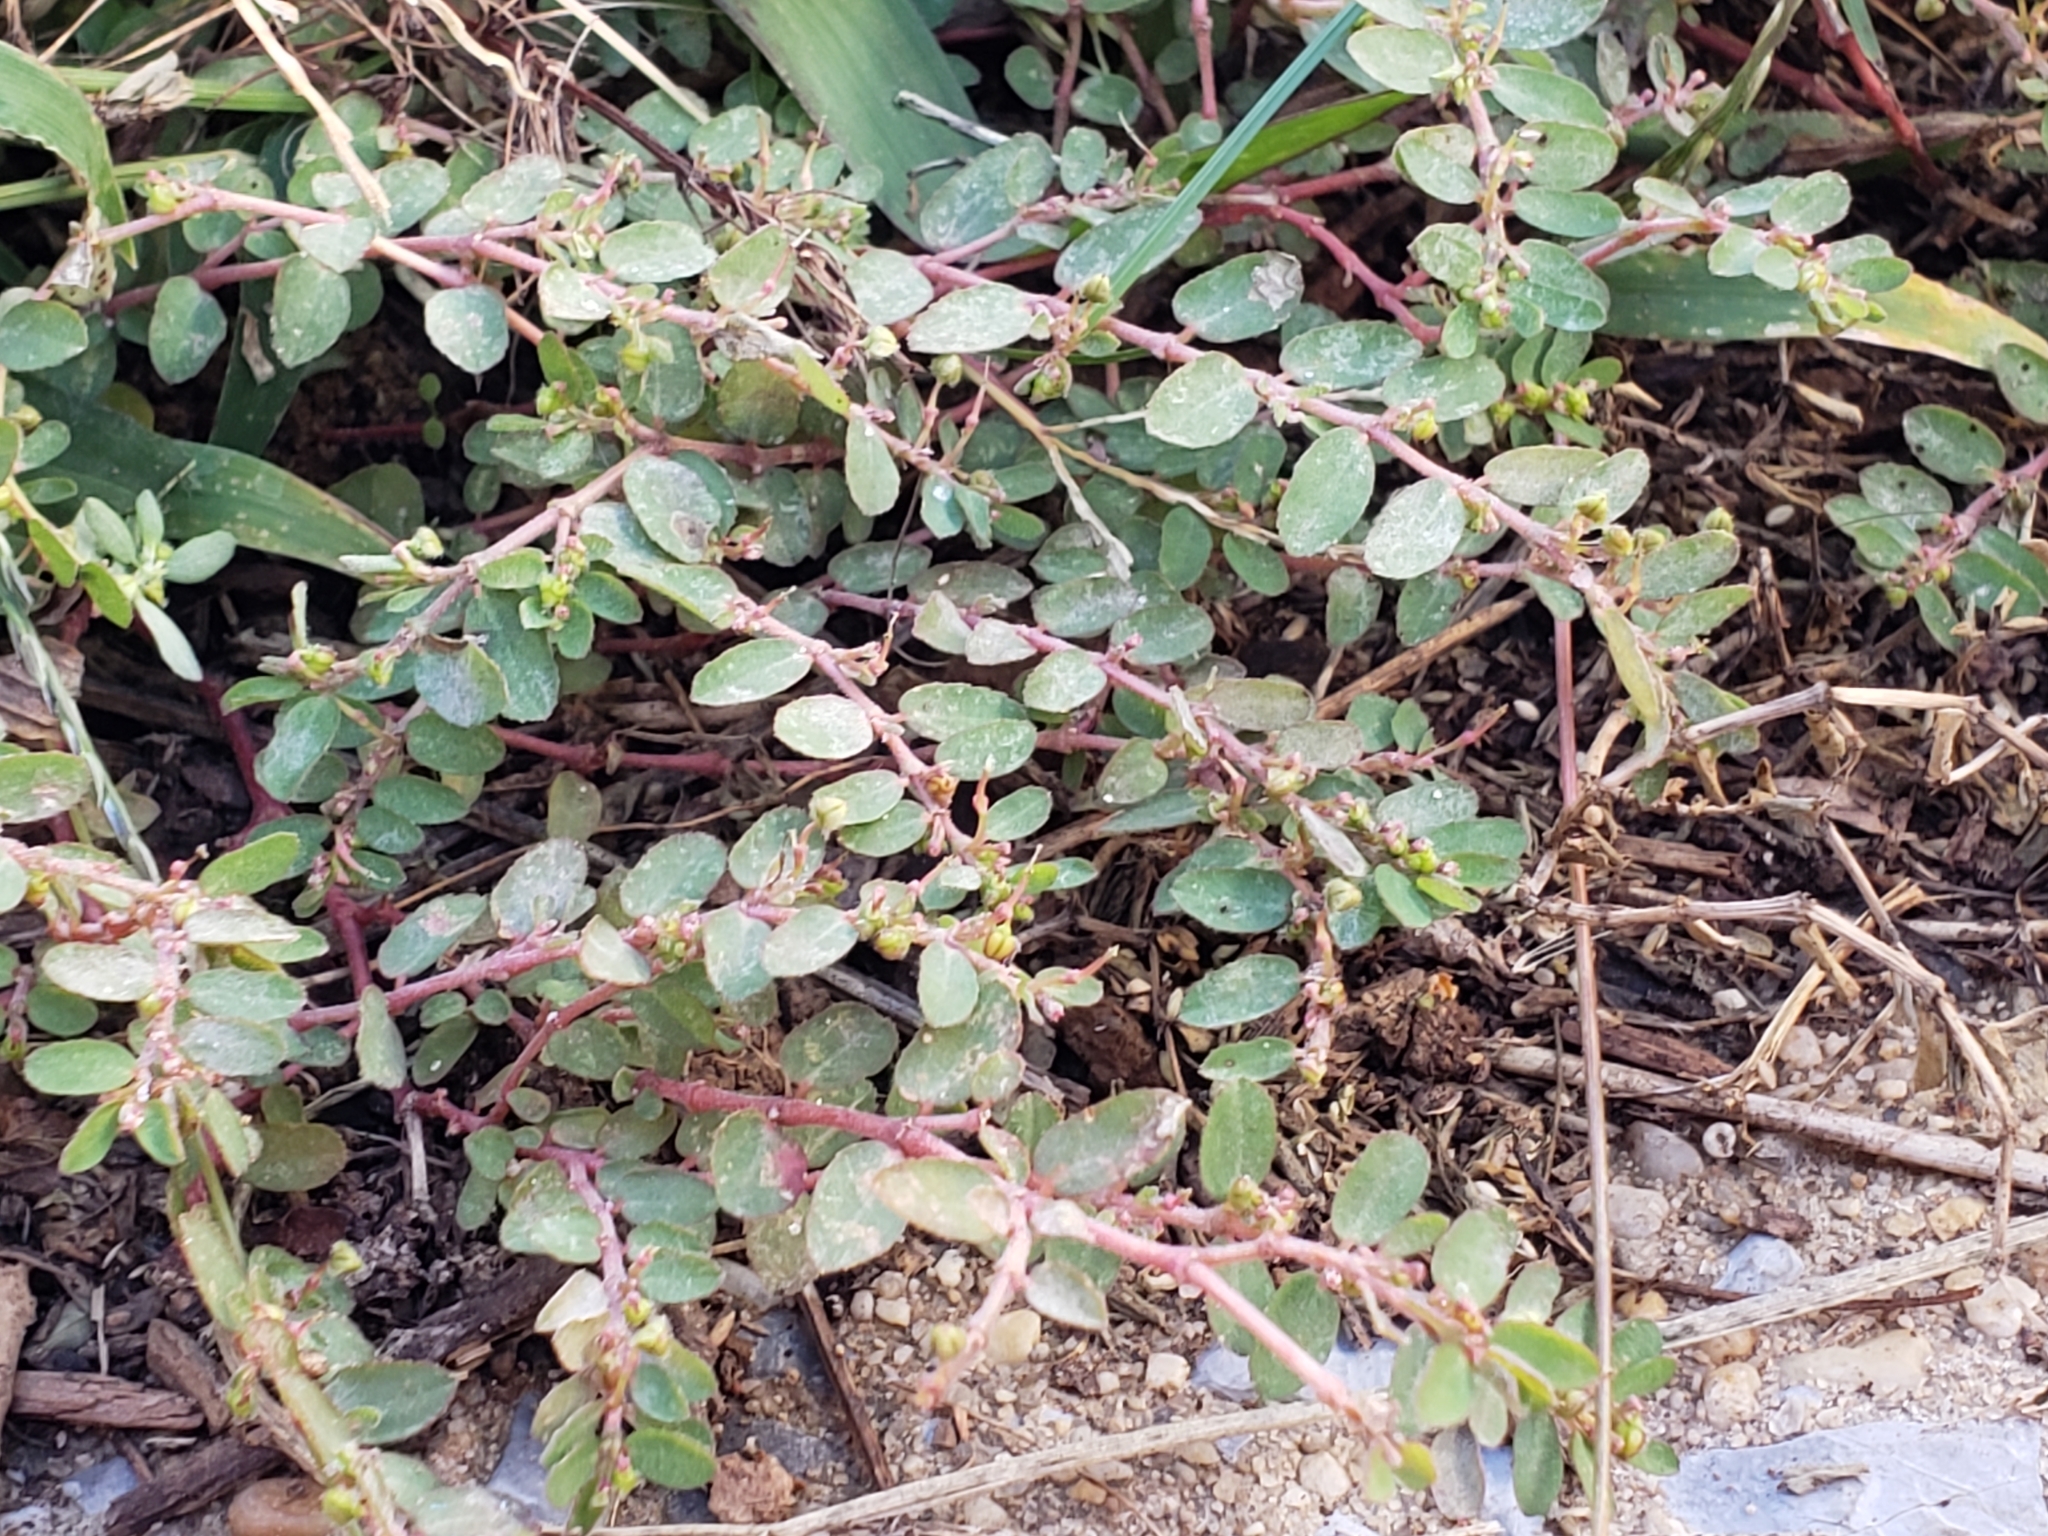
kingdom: Plantae
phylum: Tracheophyta
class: Magnoliopsida
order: Malpighiales
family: Euphorbiaceae
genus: Euphorbia
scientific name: Euphorbia prostrata
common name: Prostrate sandmat
